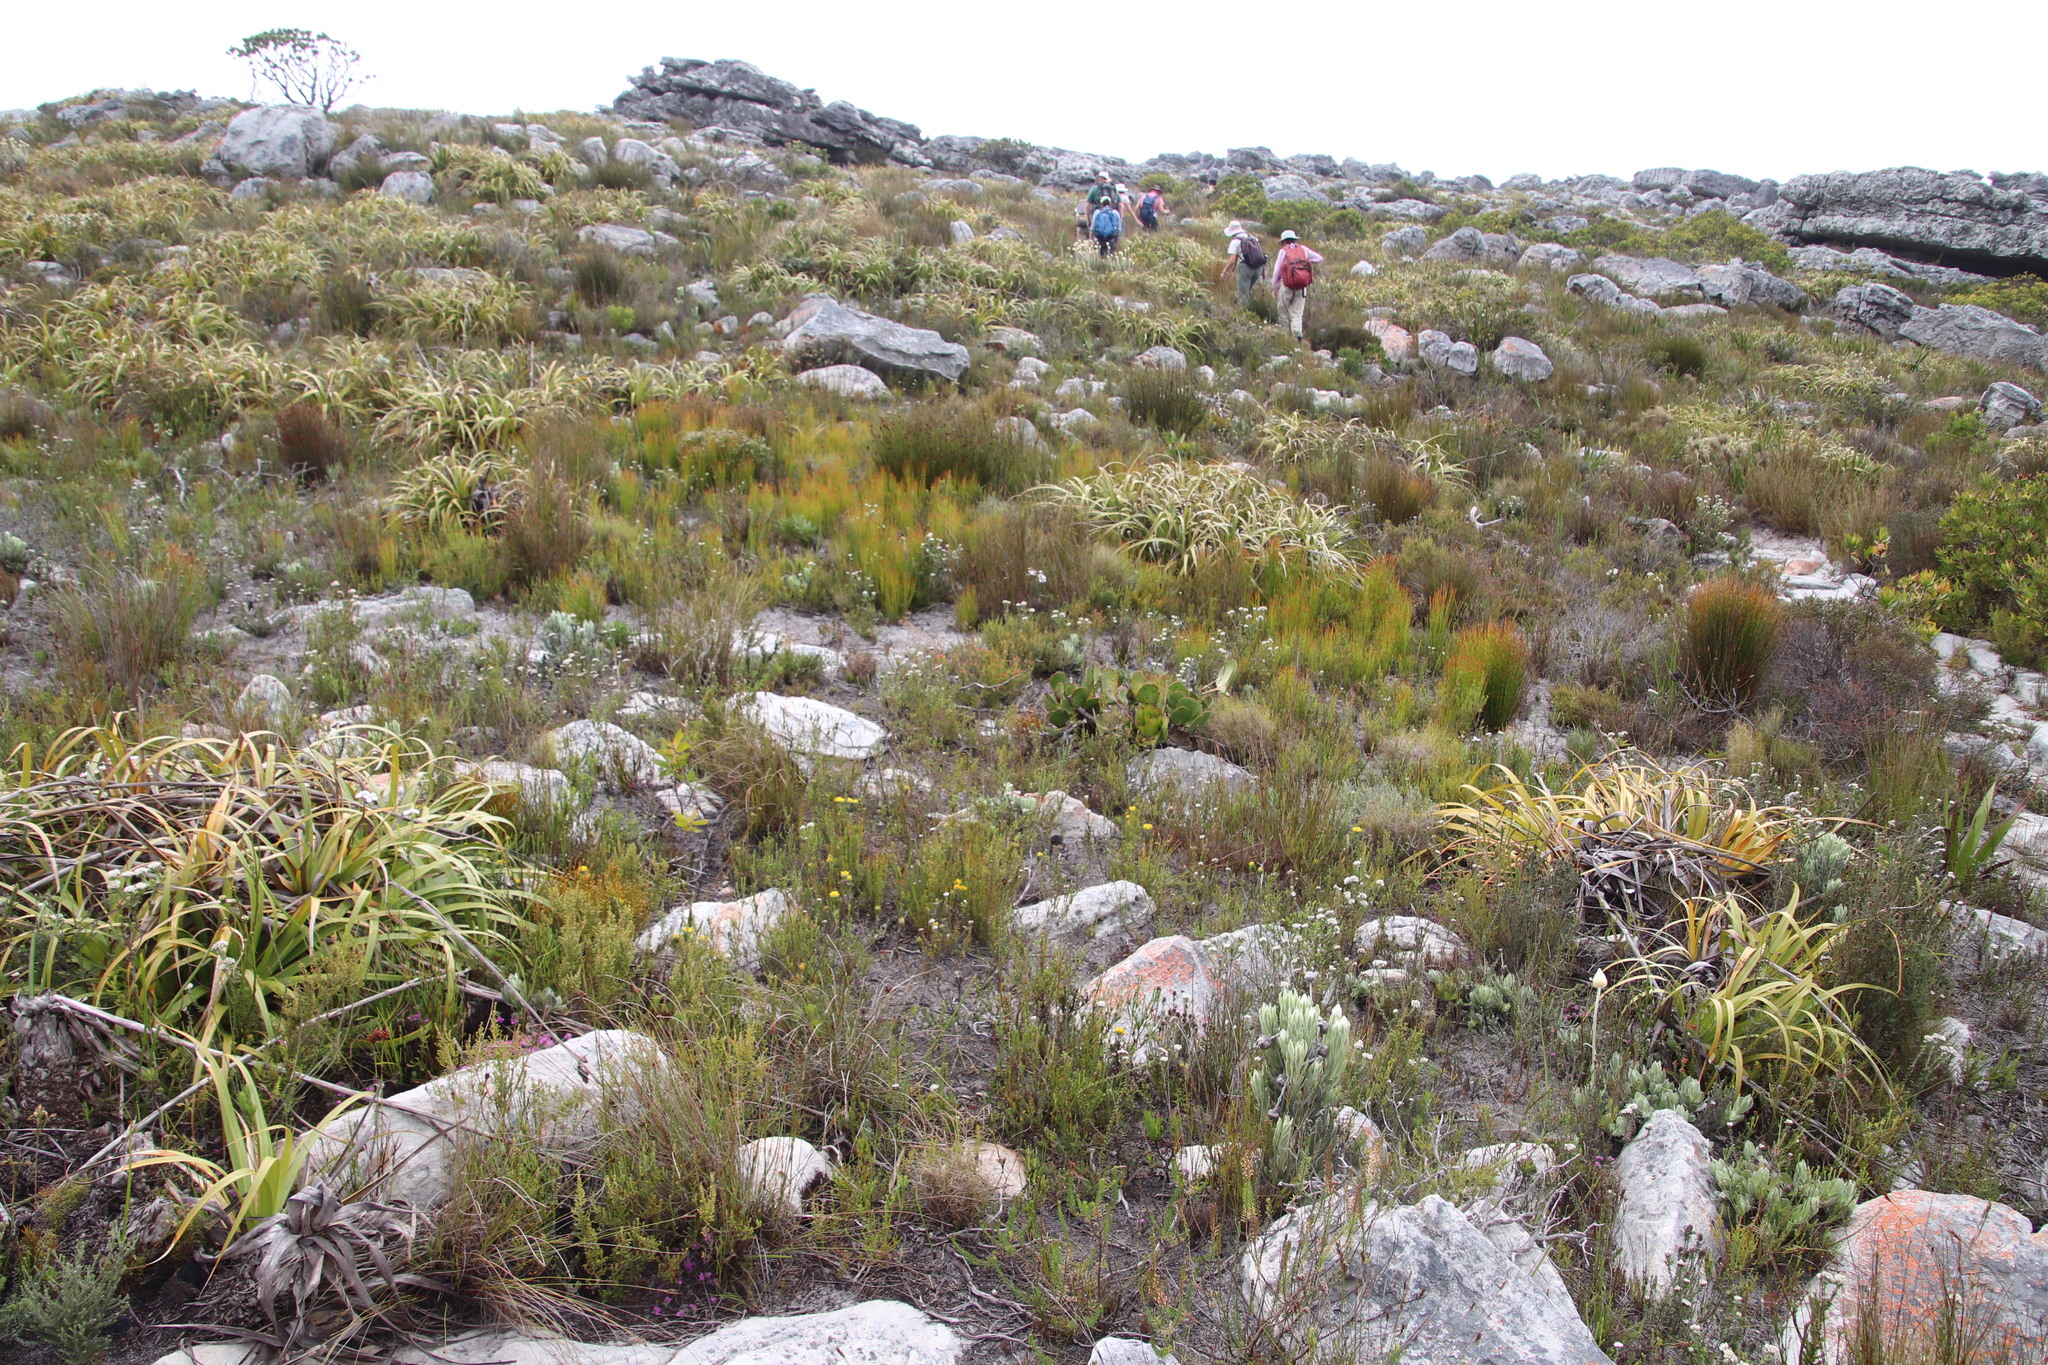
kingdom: Plantae
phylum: Tracheophyta
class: Magnoliopsida
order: Fabales
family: Fabaceae
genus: Aspalathus
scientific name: Aspalathus aspalathoides
